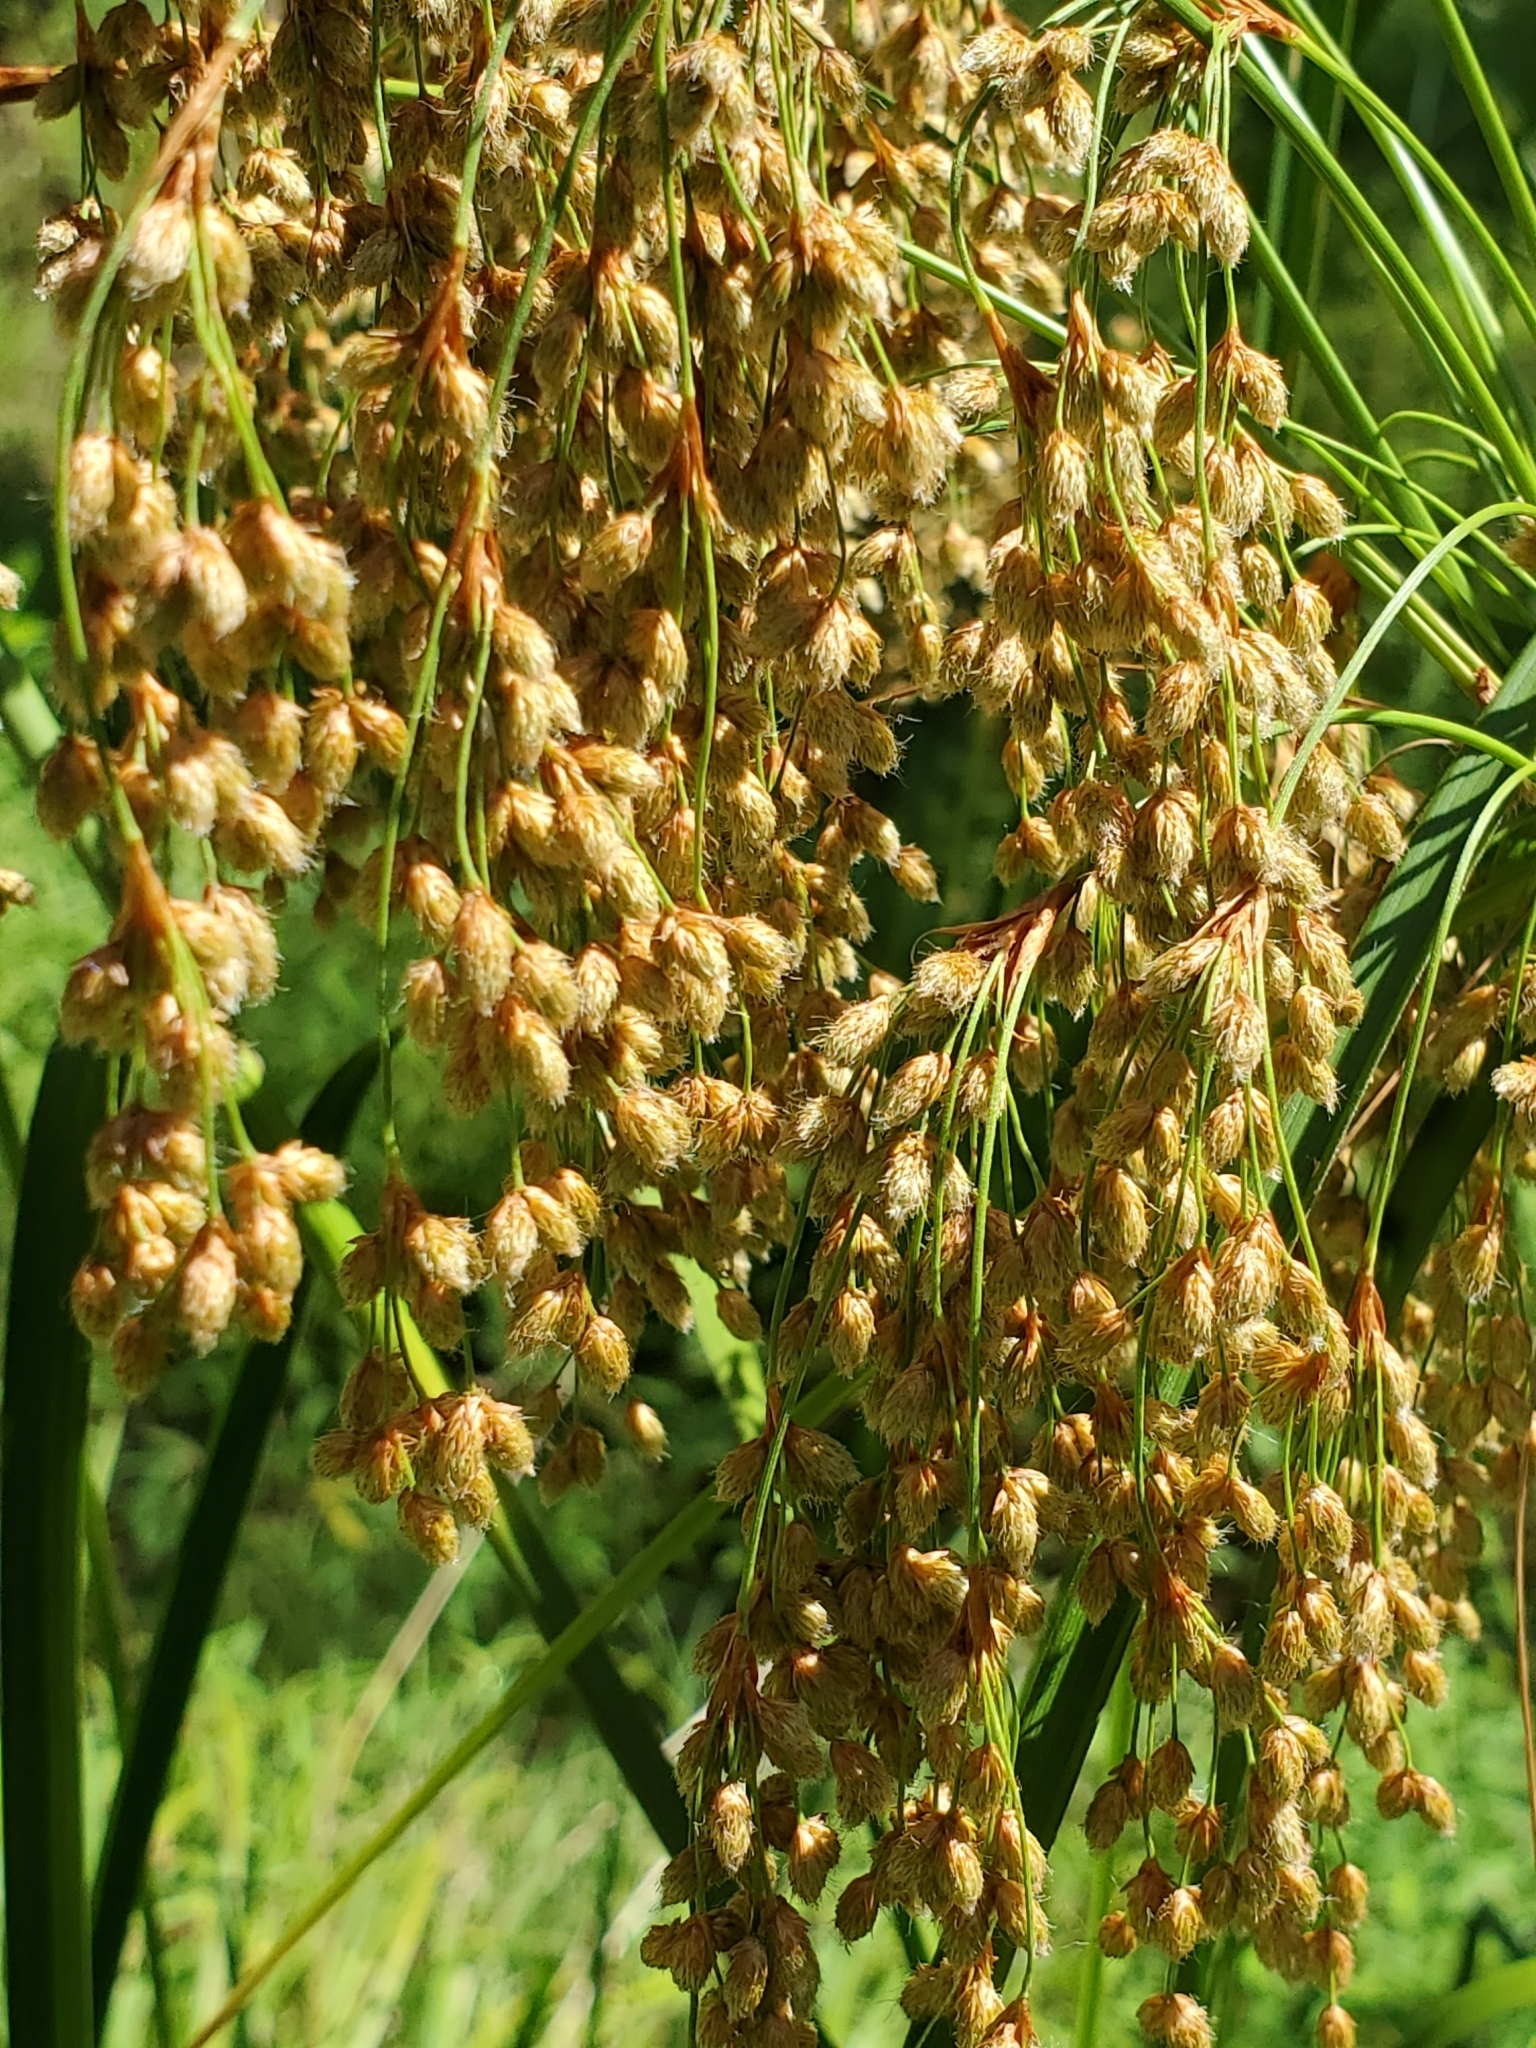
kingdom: Plantae
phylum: Tracheophyta
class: Liliopsida
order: Poales
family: Cyperaceae
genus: Scirpus
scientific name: Scirpus cyperinus
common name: Black-sheathed bulrush
